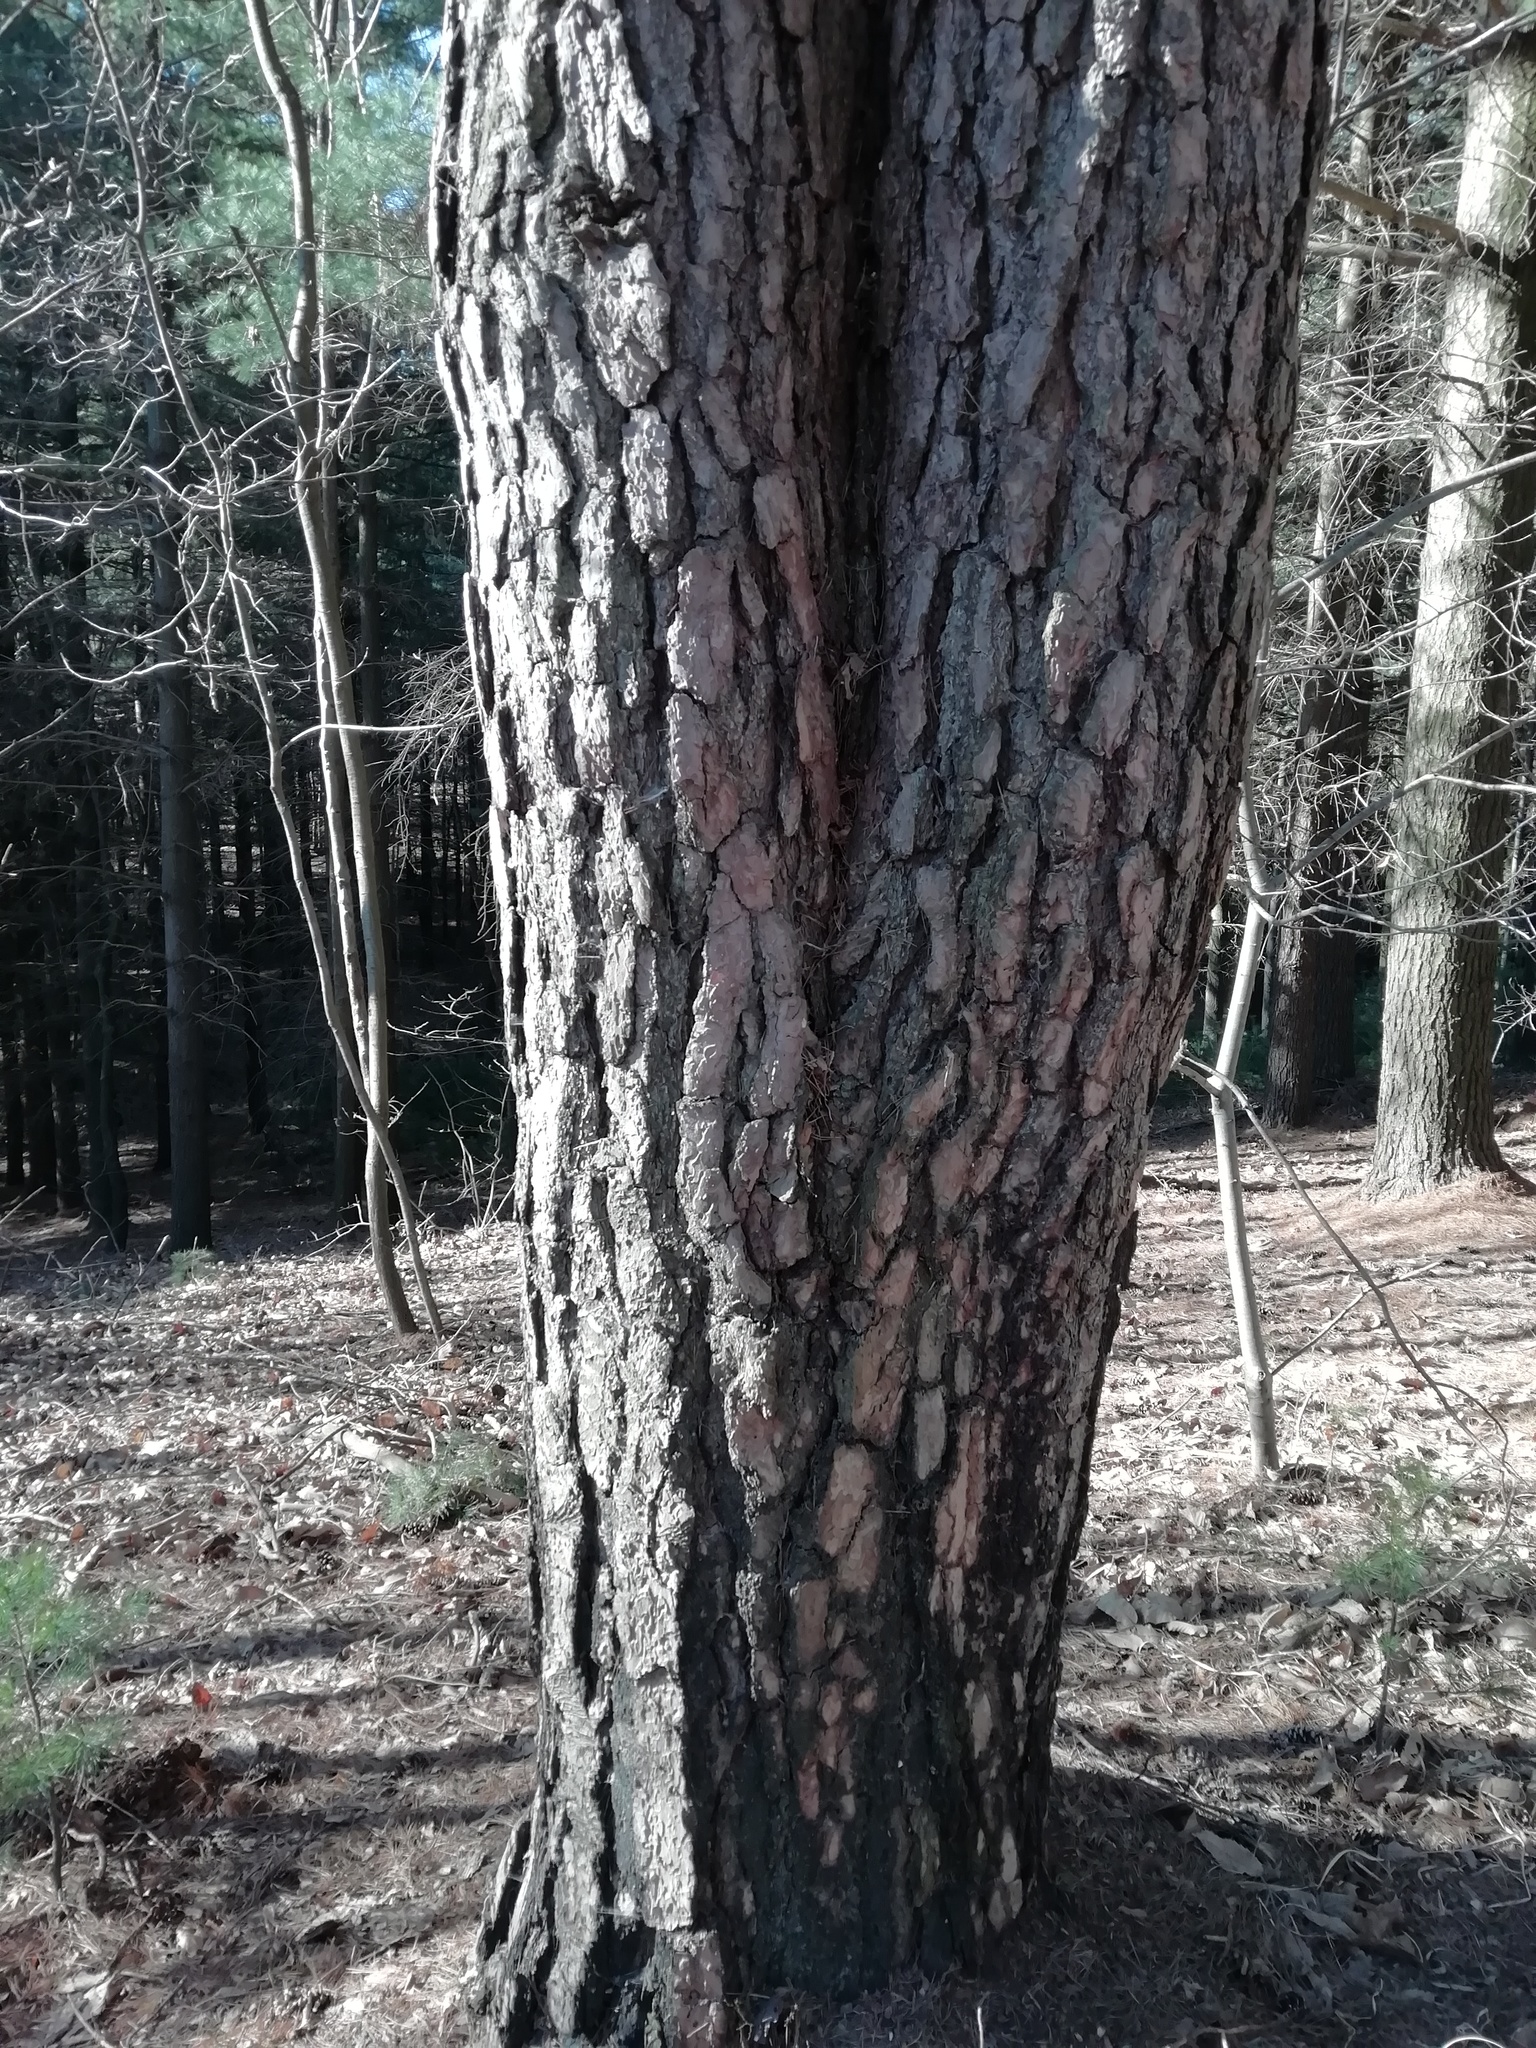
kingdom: Plantae
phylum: Tracheophyta
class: Pinopsida
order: Pinales
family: Pinaceae
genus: Pinus
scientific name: Pinus sylvestris
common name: Scots pine
